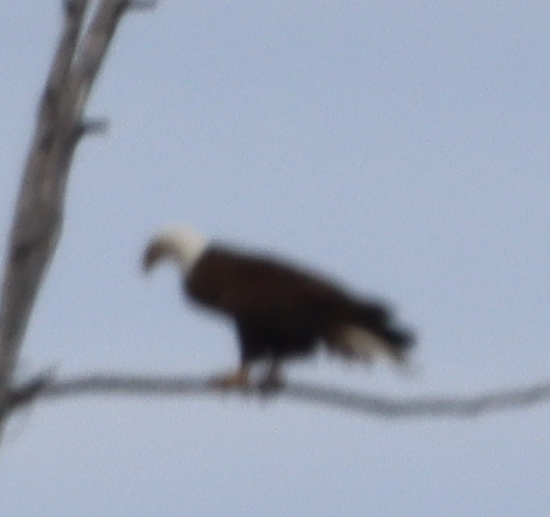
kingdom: Animalia
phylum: Chordata
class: Aves
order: Accipitriformes
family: Accipitridae
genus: Haliaeetus
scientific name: Haliaeetus leucocephalus
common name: Bald eagle
